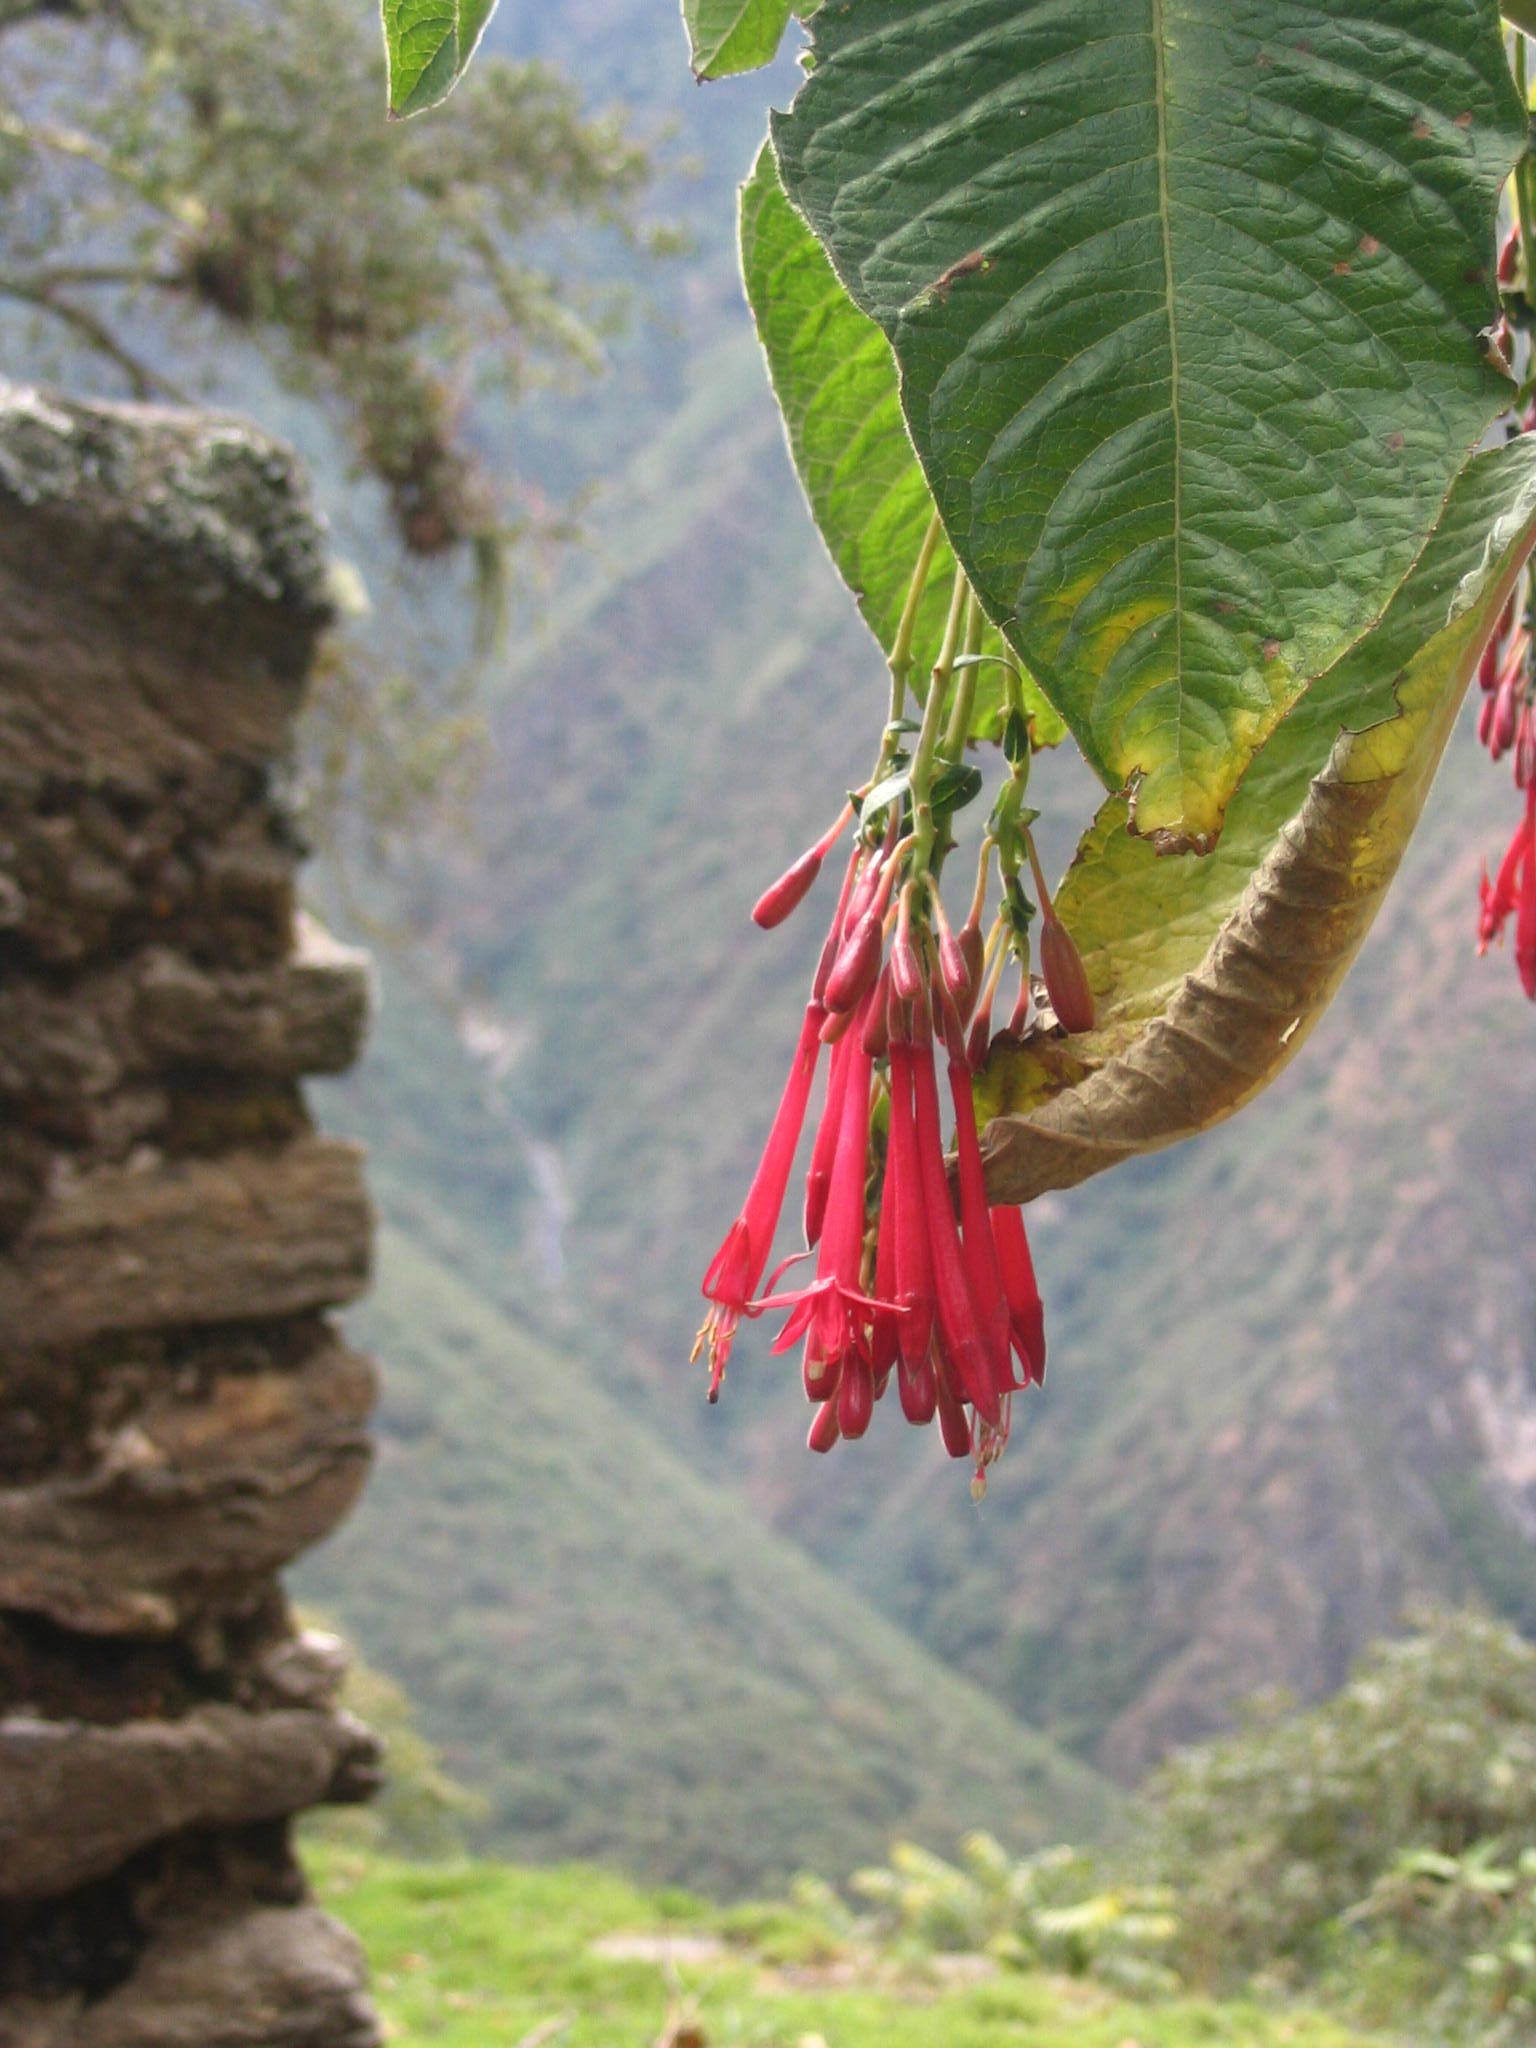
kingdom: Plantae
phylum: Tracheophyta
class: Magnoliopsida
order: Myrtales
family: Onagraceae
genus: Fuchsia
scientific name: Fuchsia boliviana
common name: Bolivian fuchsia
